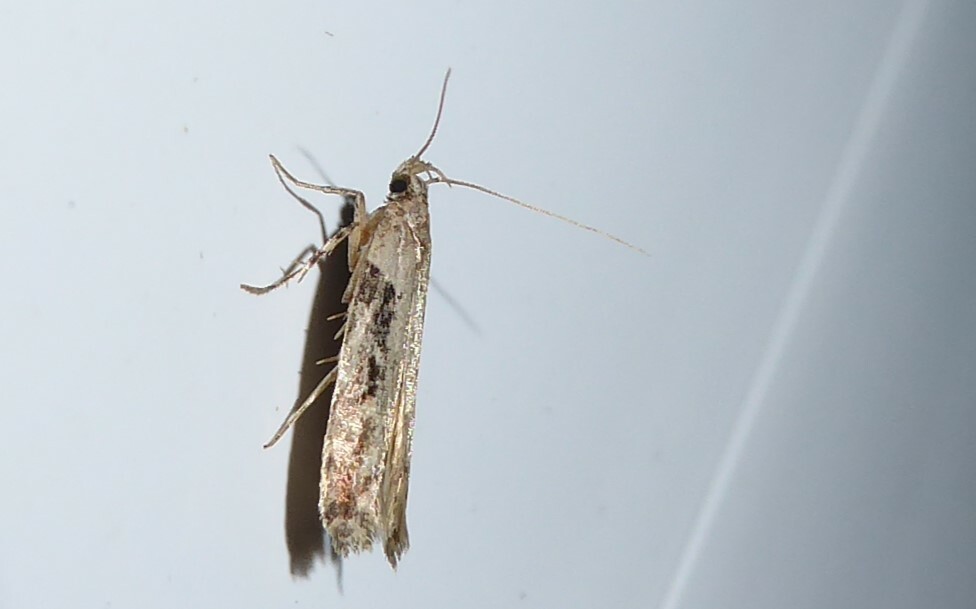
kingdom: Animalia
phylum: Arthropoda
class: Insecta
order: Lepidoptera
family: Gelechiidae
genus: Symmetrischema
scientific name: Symmetrischema tangolias
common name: Moth
